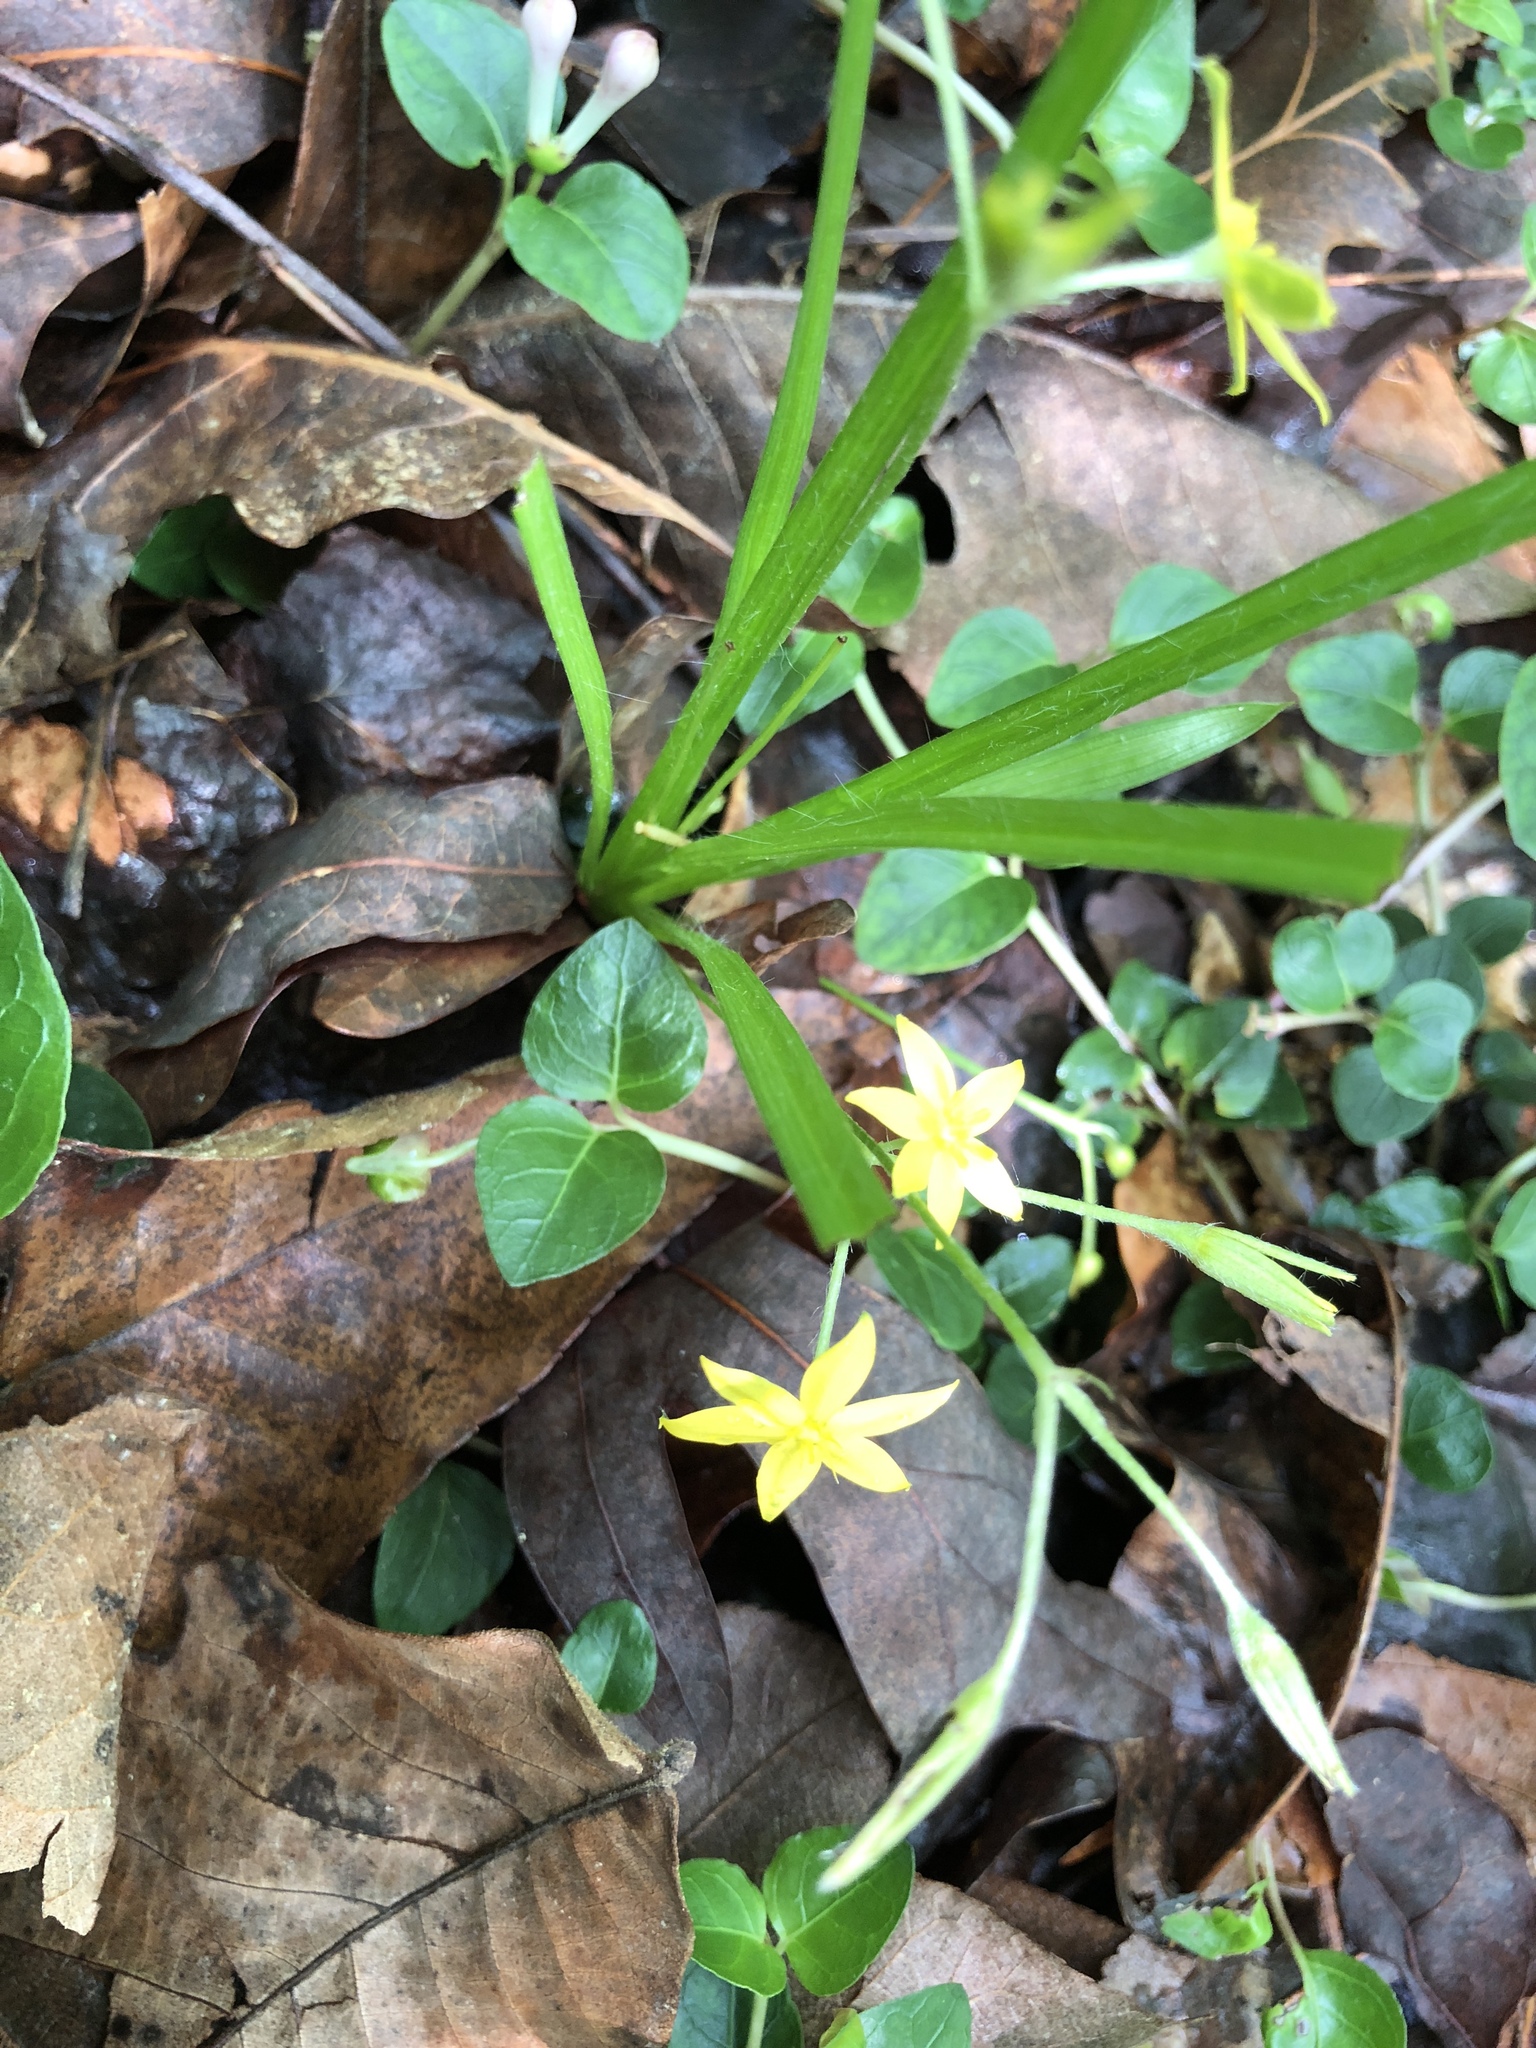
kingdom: Plantae
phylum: Tracheophyta
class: Liliopsida
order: Asparagales
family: Hypoxidaceae
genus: Hypoxis
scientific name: Hypoxis hirsuta
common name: Common goldstar
